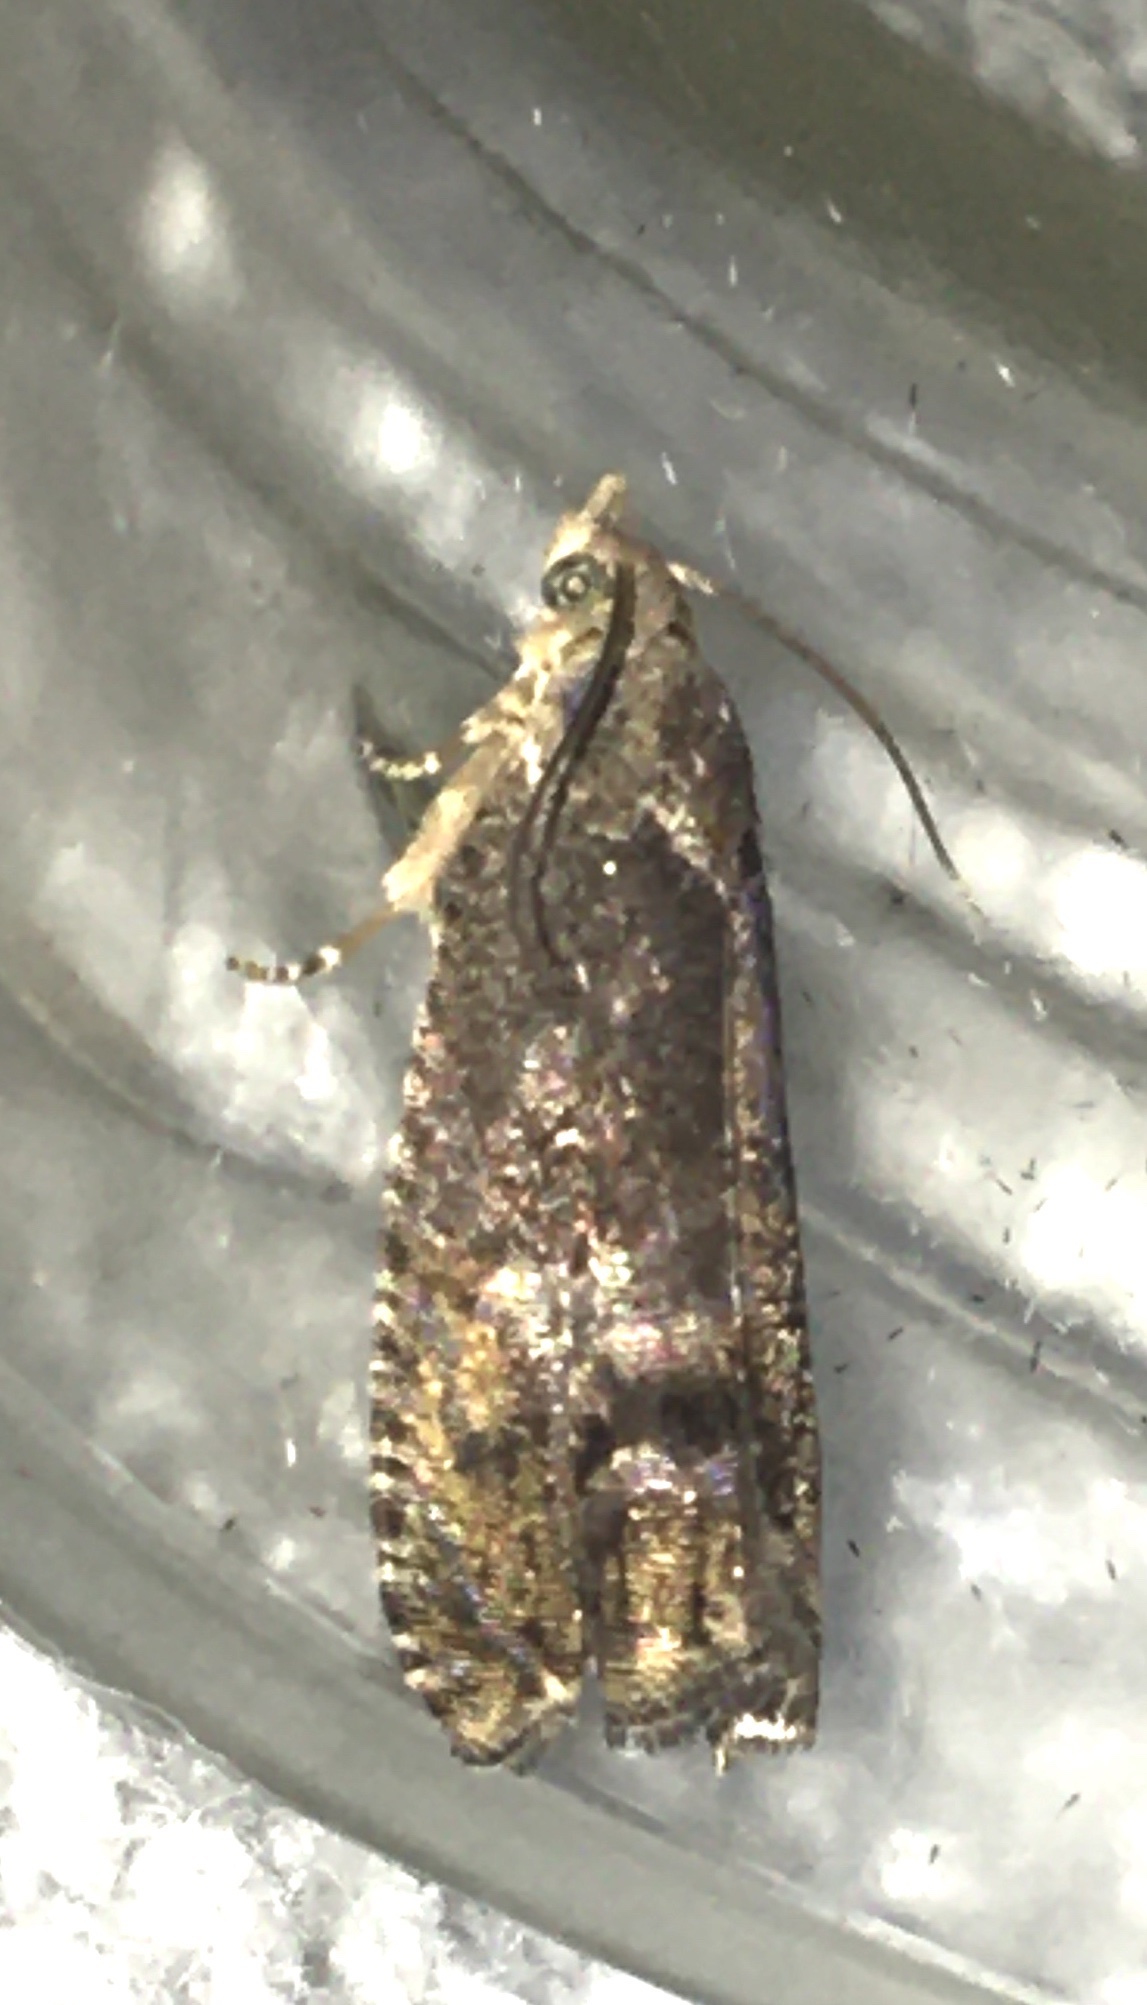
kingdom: Animalia
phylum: Arthropoda
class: Insecta
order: Lepidoptera
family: Tortricidae
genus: Cydia
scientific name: Cydia splendana
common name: De: kastanienwickler, eichenwickler es: oruga de la castaña fr: carpocapse des châtaignes it: cidia o tortrice tardiva delle castagne pt: bichado das castanhas gb: acorn moth, chestnut fruit tortrix
